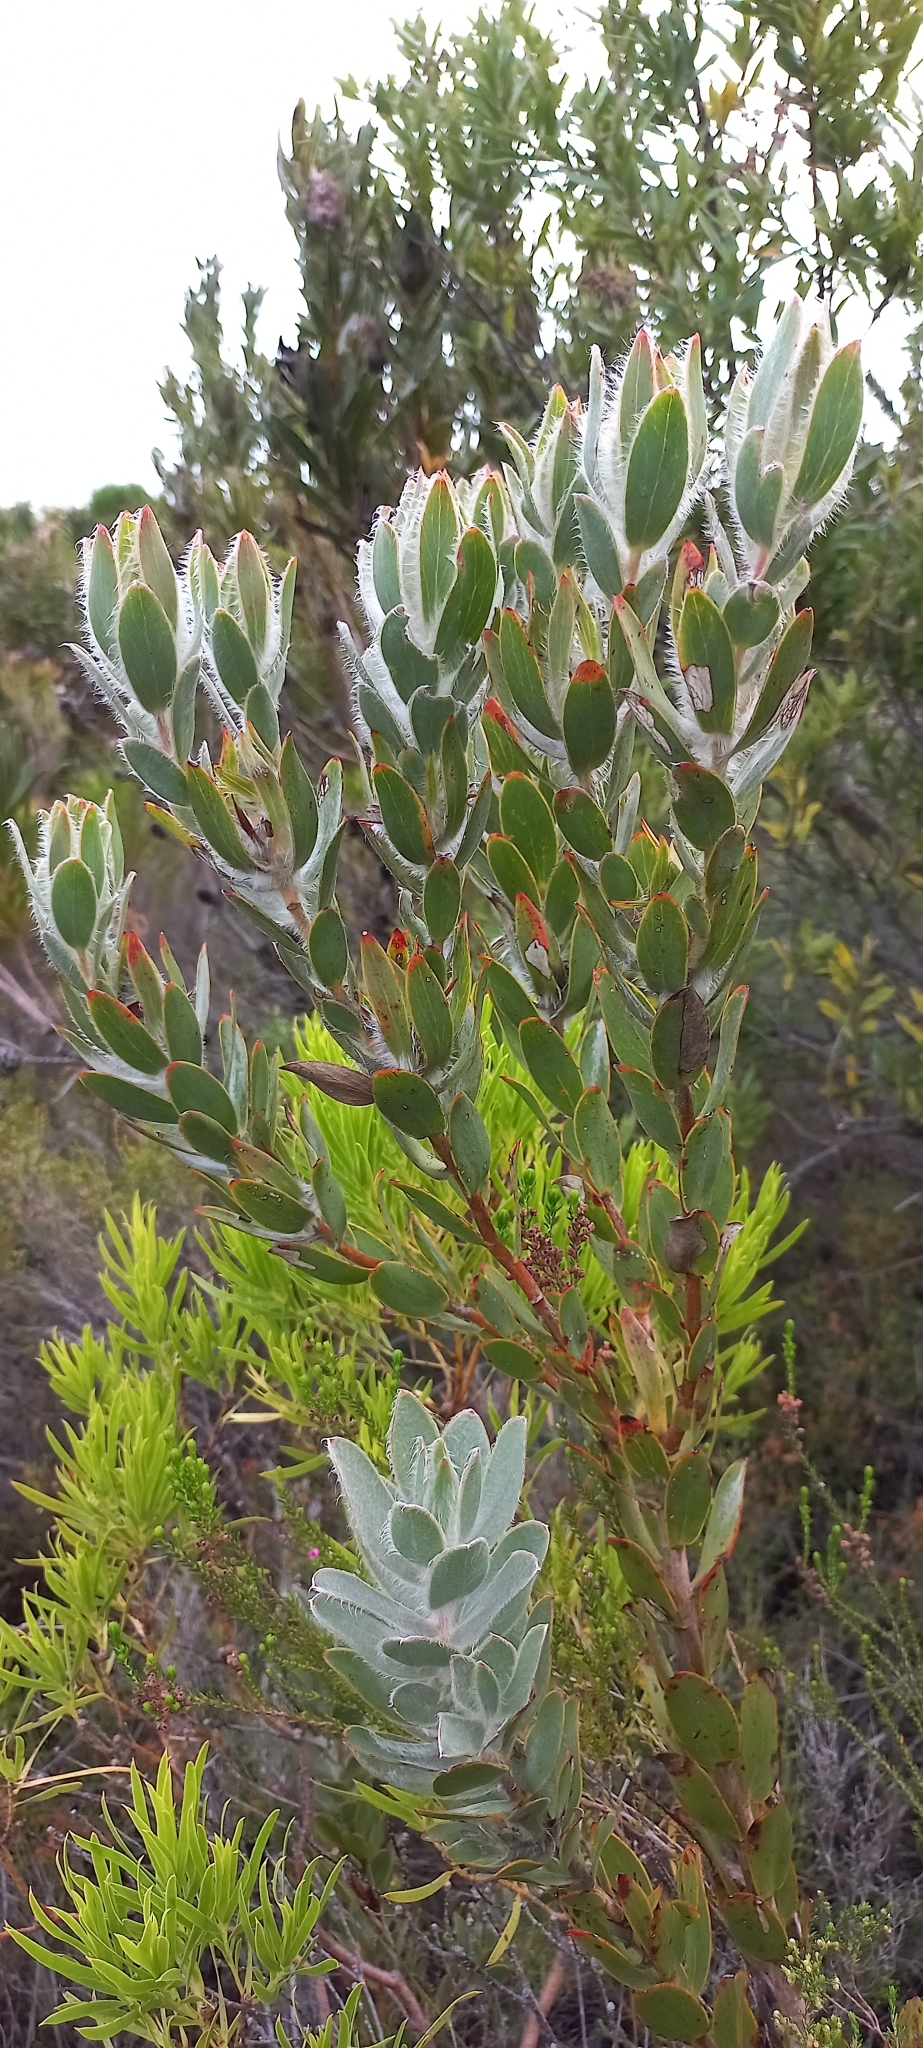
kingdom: Plantae
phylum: Tracheophyta
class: Magnoliopsida
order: Proteales
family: Proteaceae
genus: Leucadendron
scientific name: Leucadendron nervosum
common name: Silky-ruff conebush
